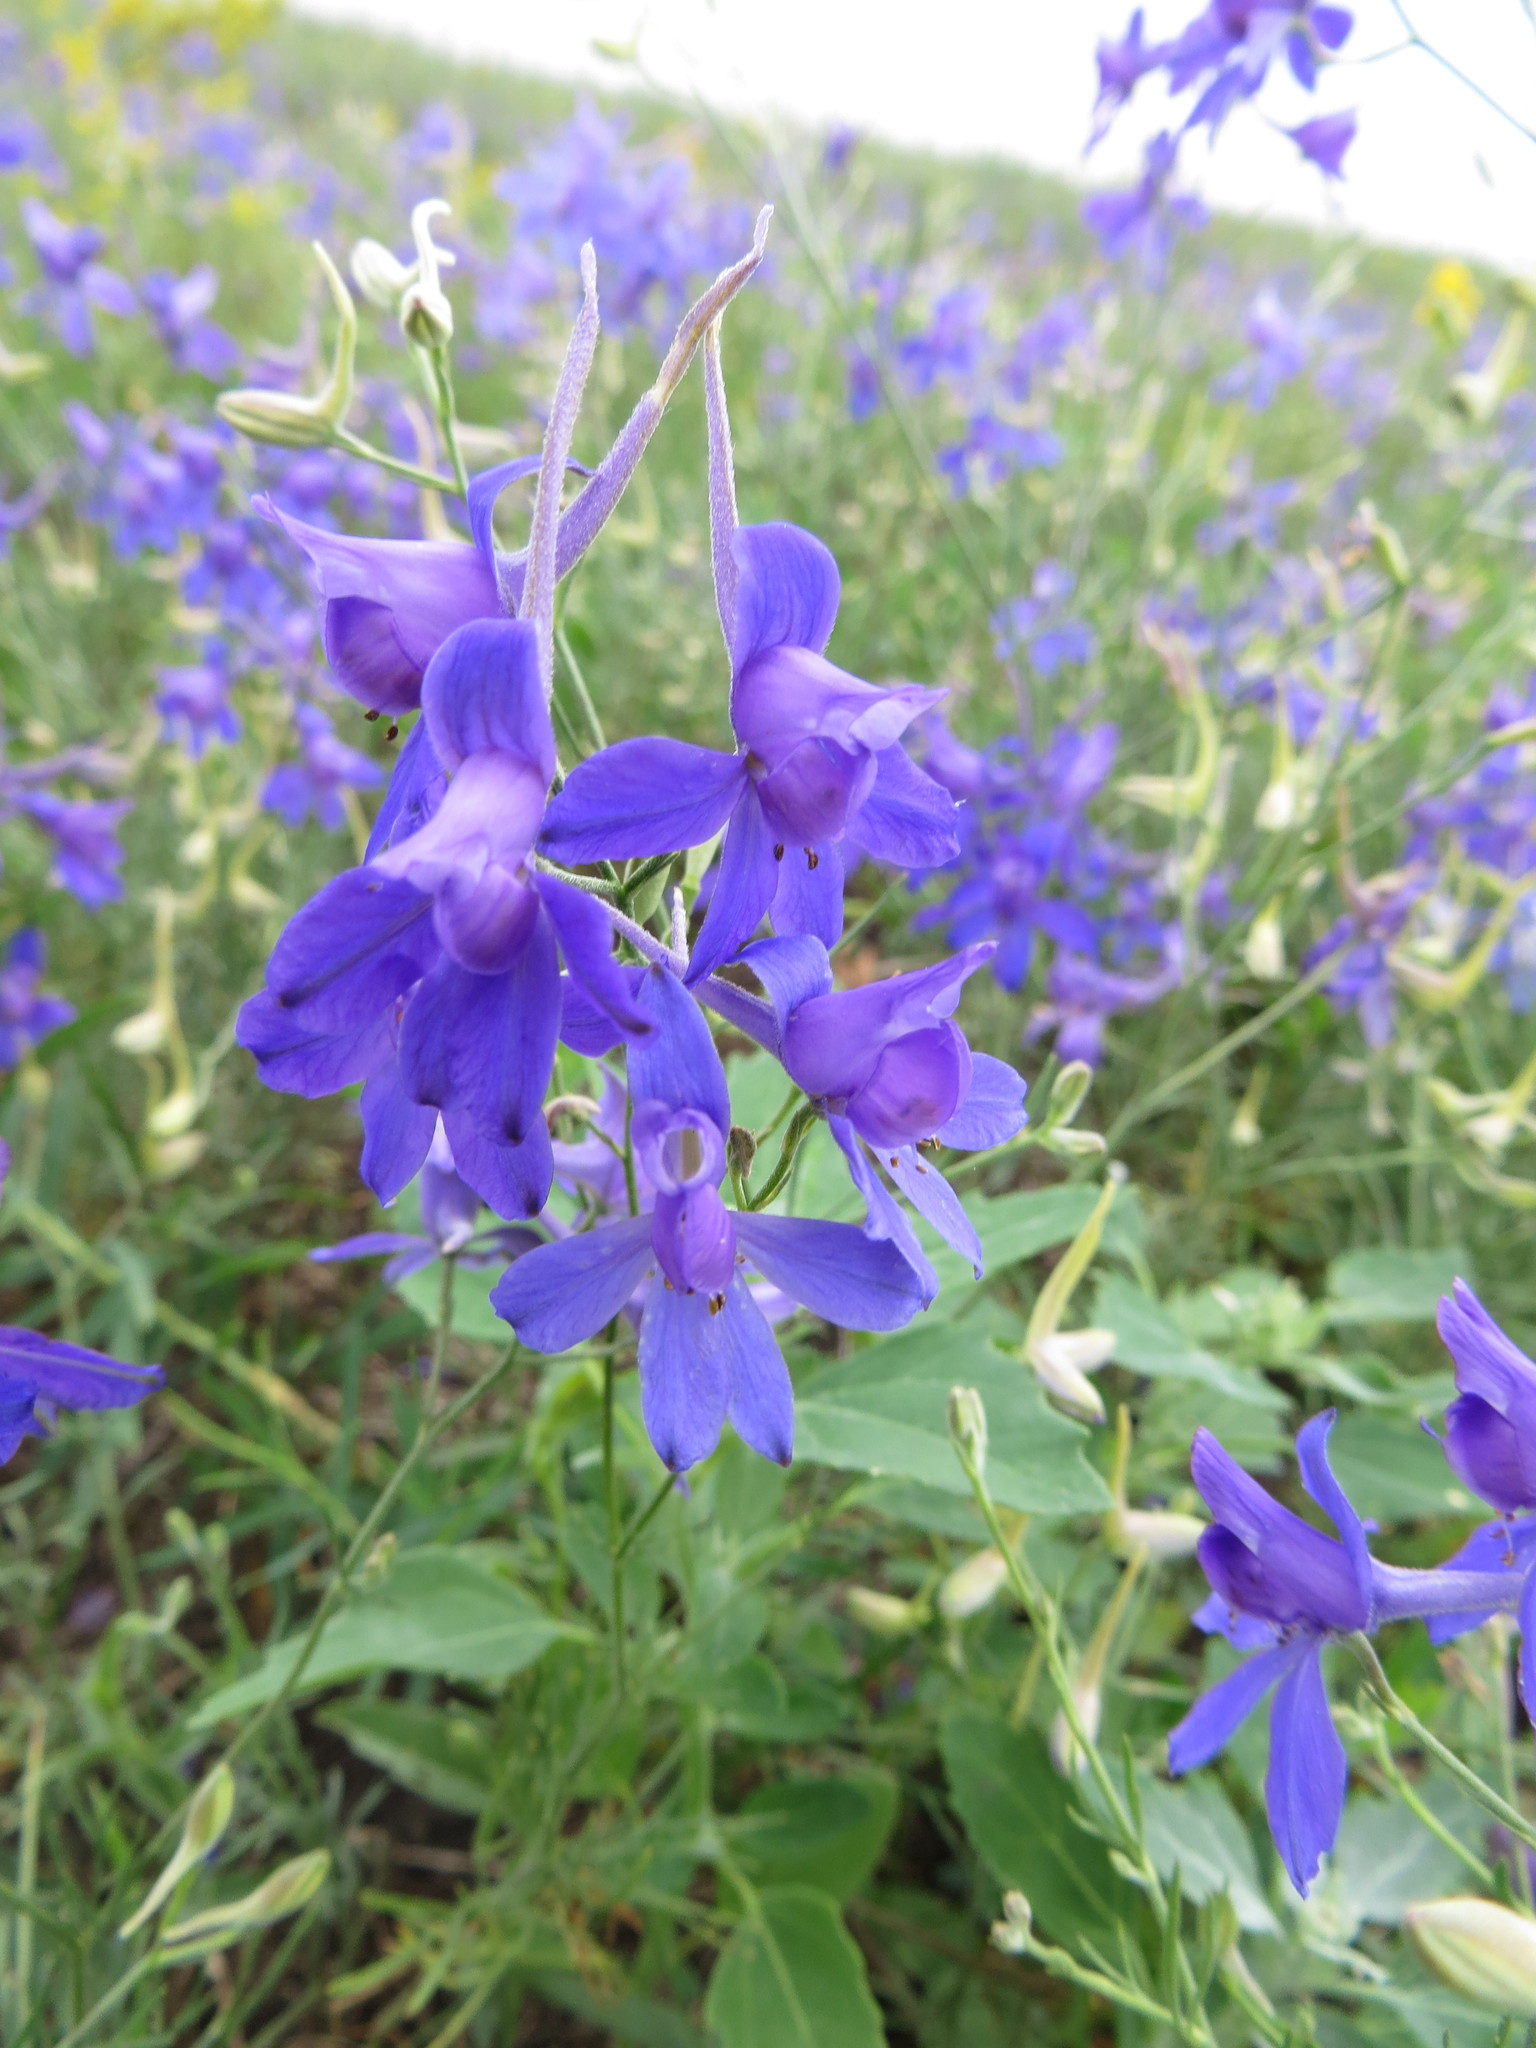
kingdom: Plantae
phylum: Tracheophyta
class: Magnoliopsida
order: Ranunculales
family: Ranunculaceae
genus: Delphinium
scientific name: Delphinium consolida
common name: Branching larkspur
